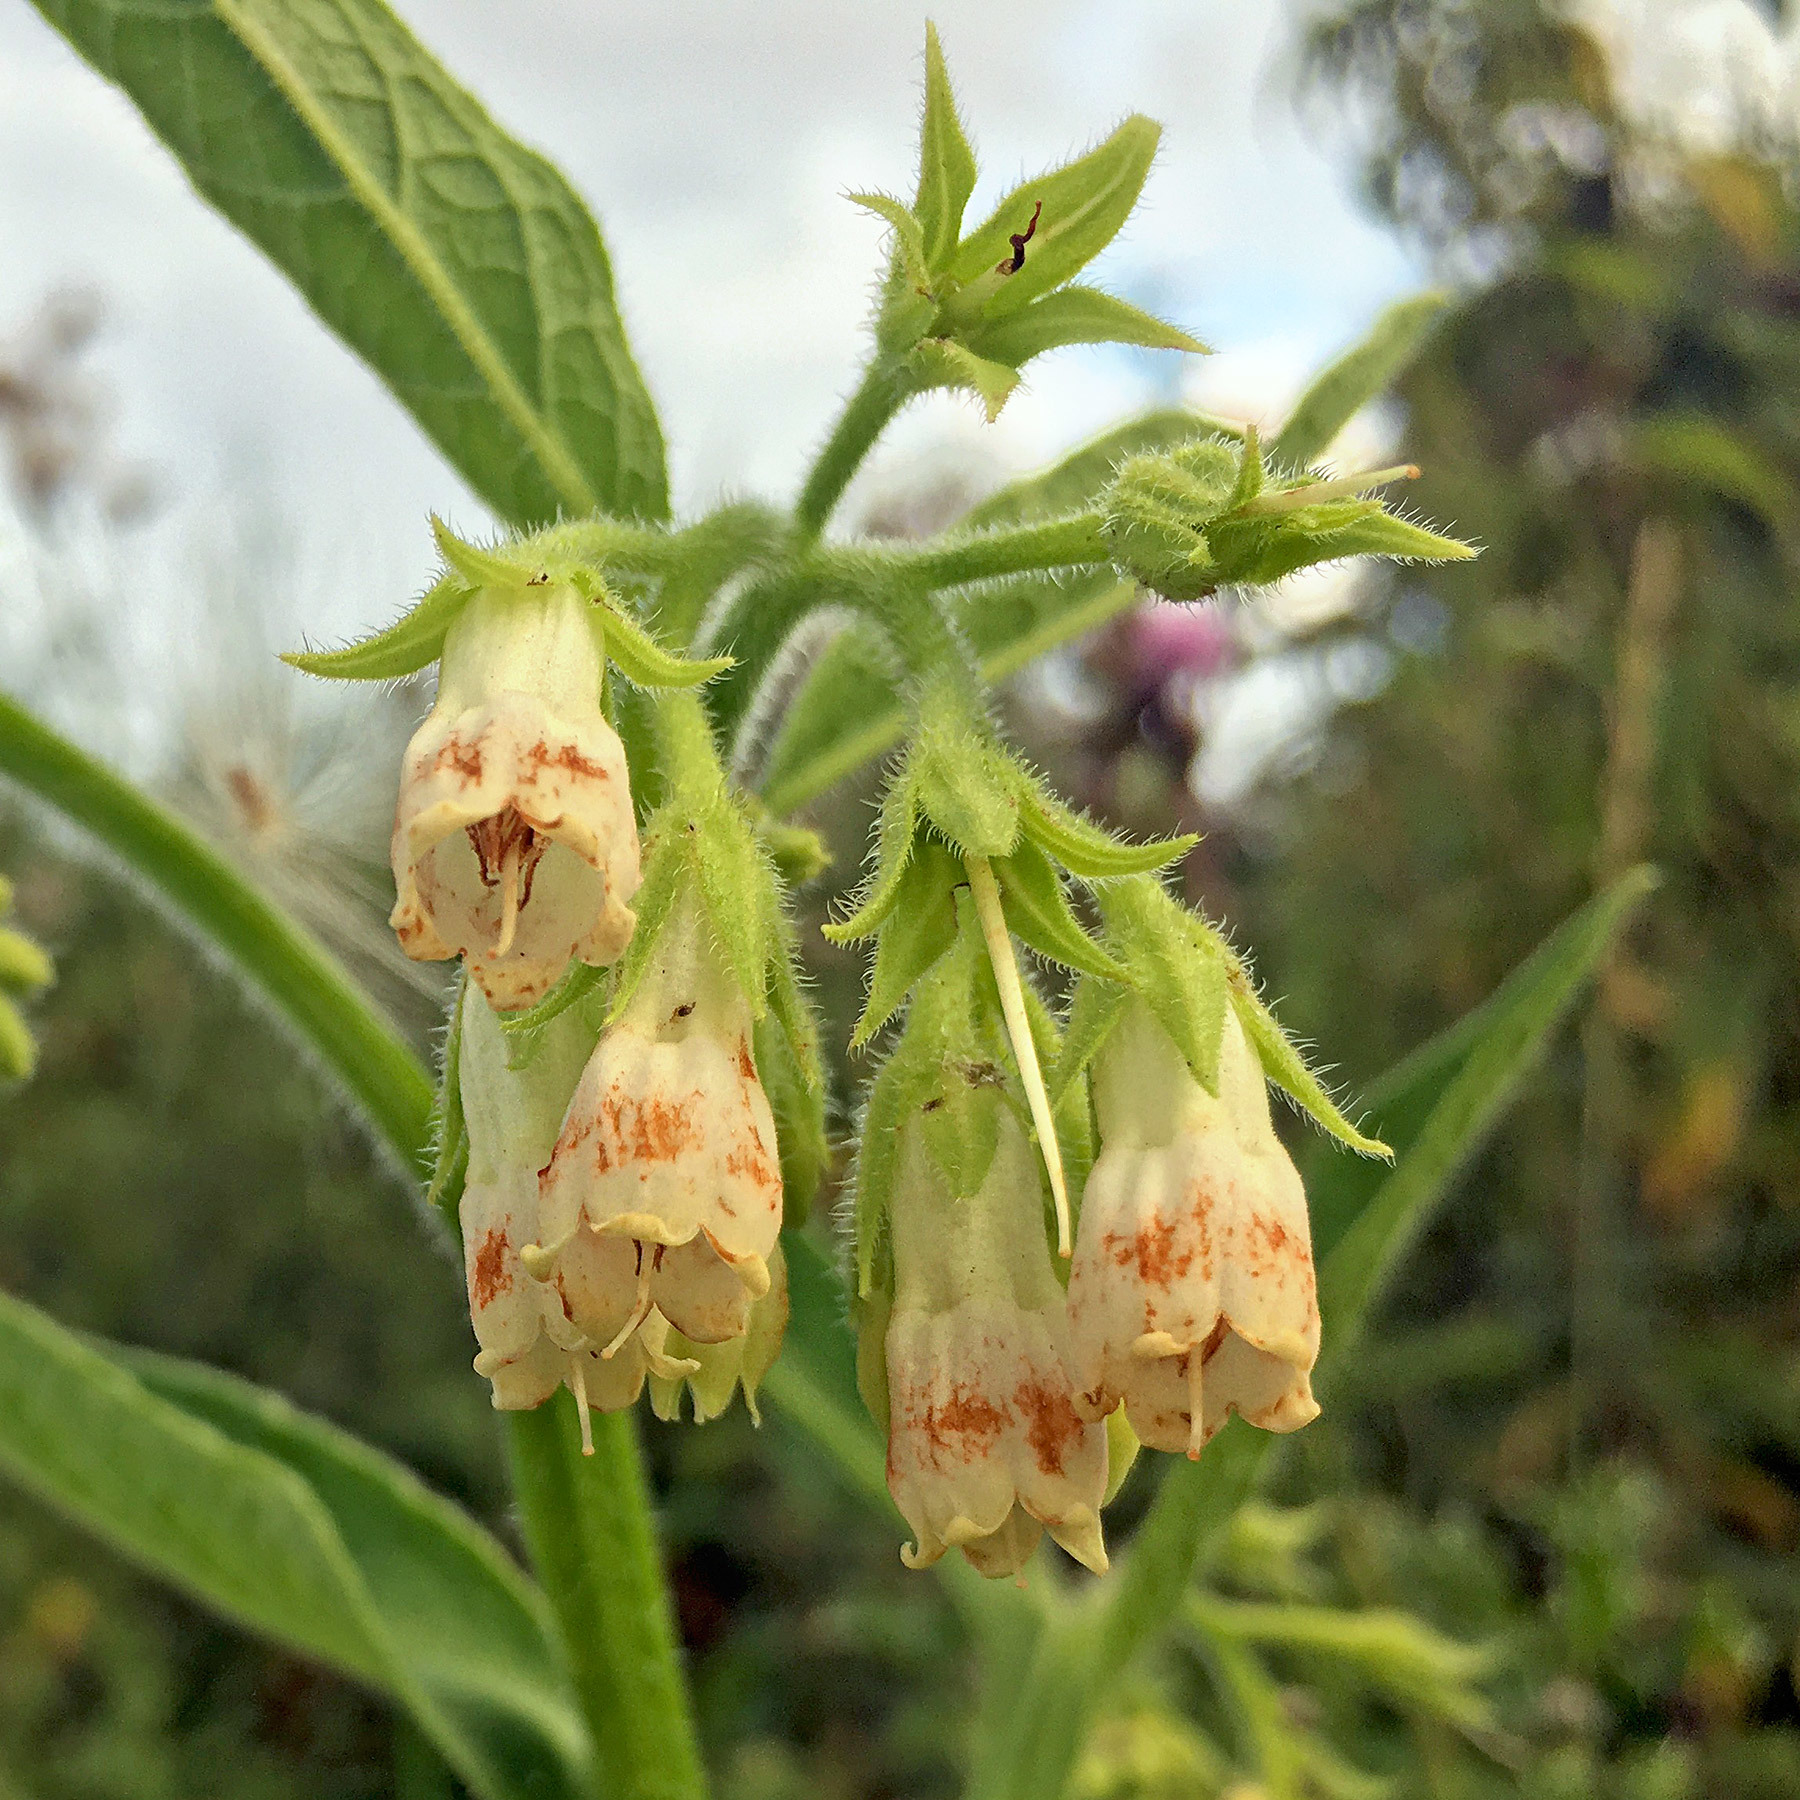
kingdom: Plantae
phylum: Tracheophyta
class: Magnoliopsida
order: Boraginales
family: Boraginaceae
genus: Symphytum
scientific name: Symphytum bohemicum
